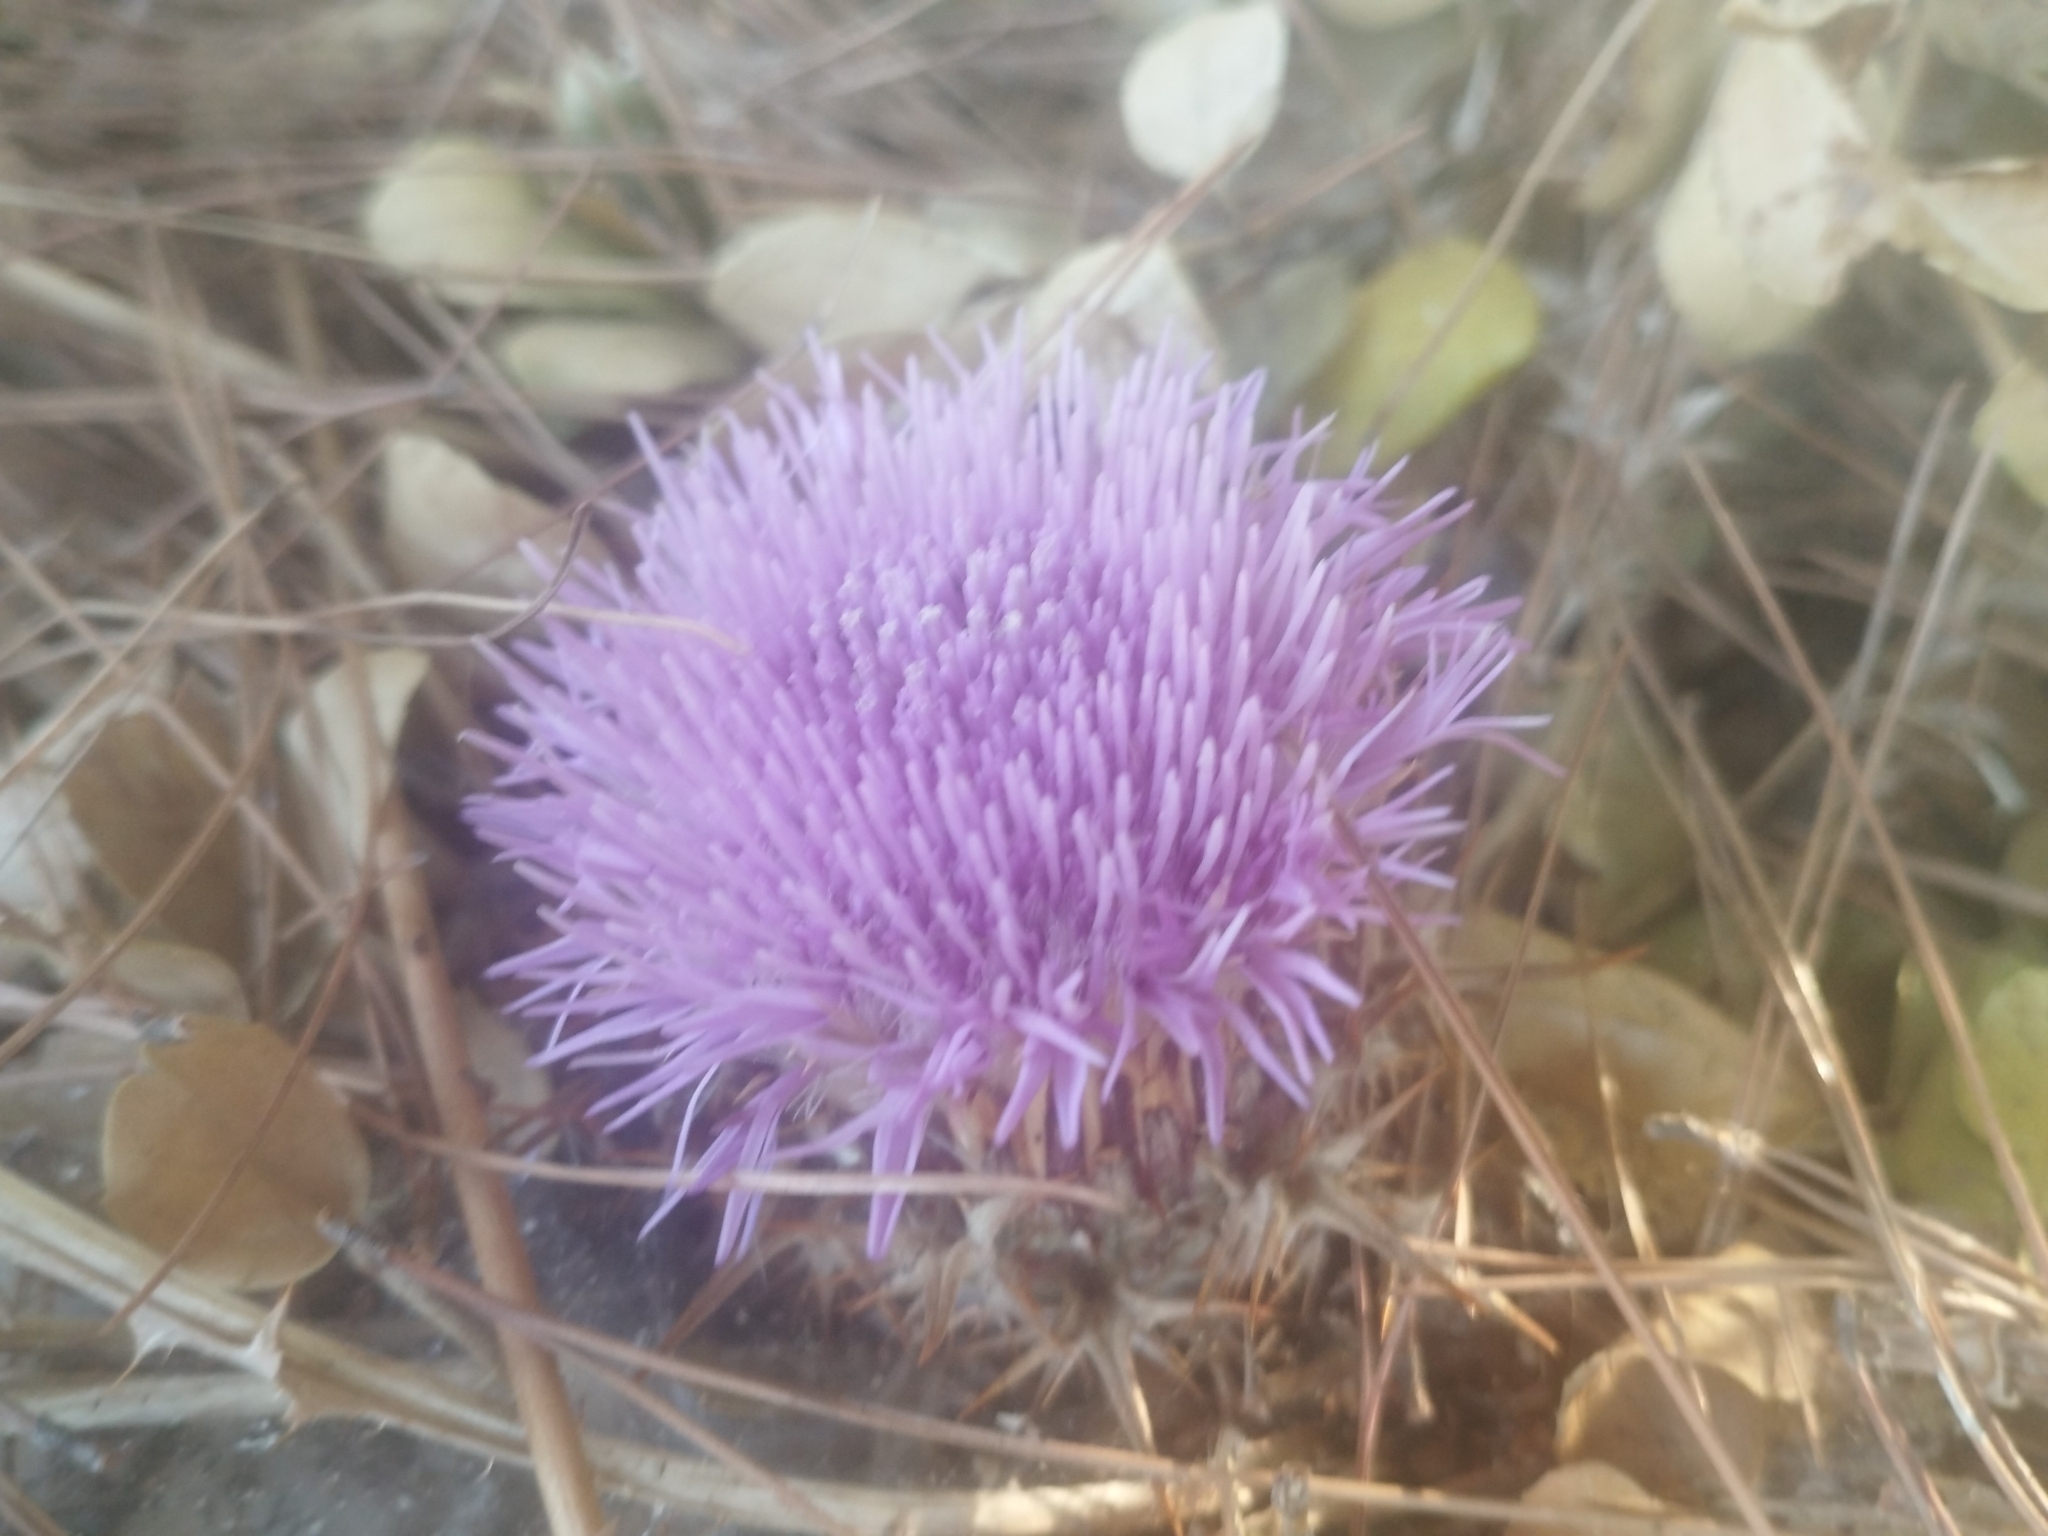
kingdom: Plantae
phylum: Tracheophyta
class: Magnoliopsida
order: Asterales
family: Asteraceae
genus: Chamaeleon
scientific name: Chamaeleon gummifer
